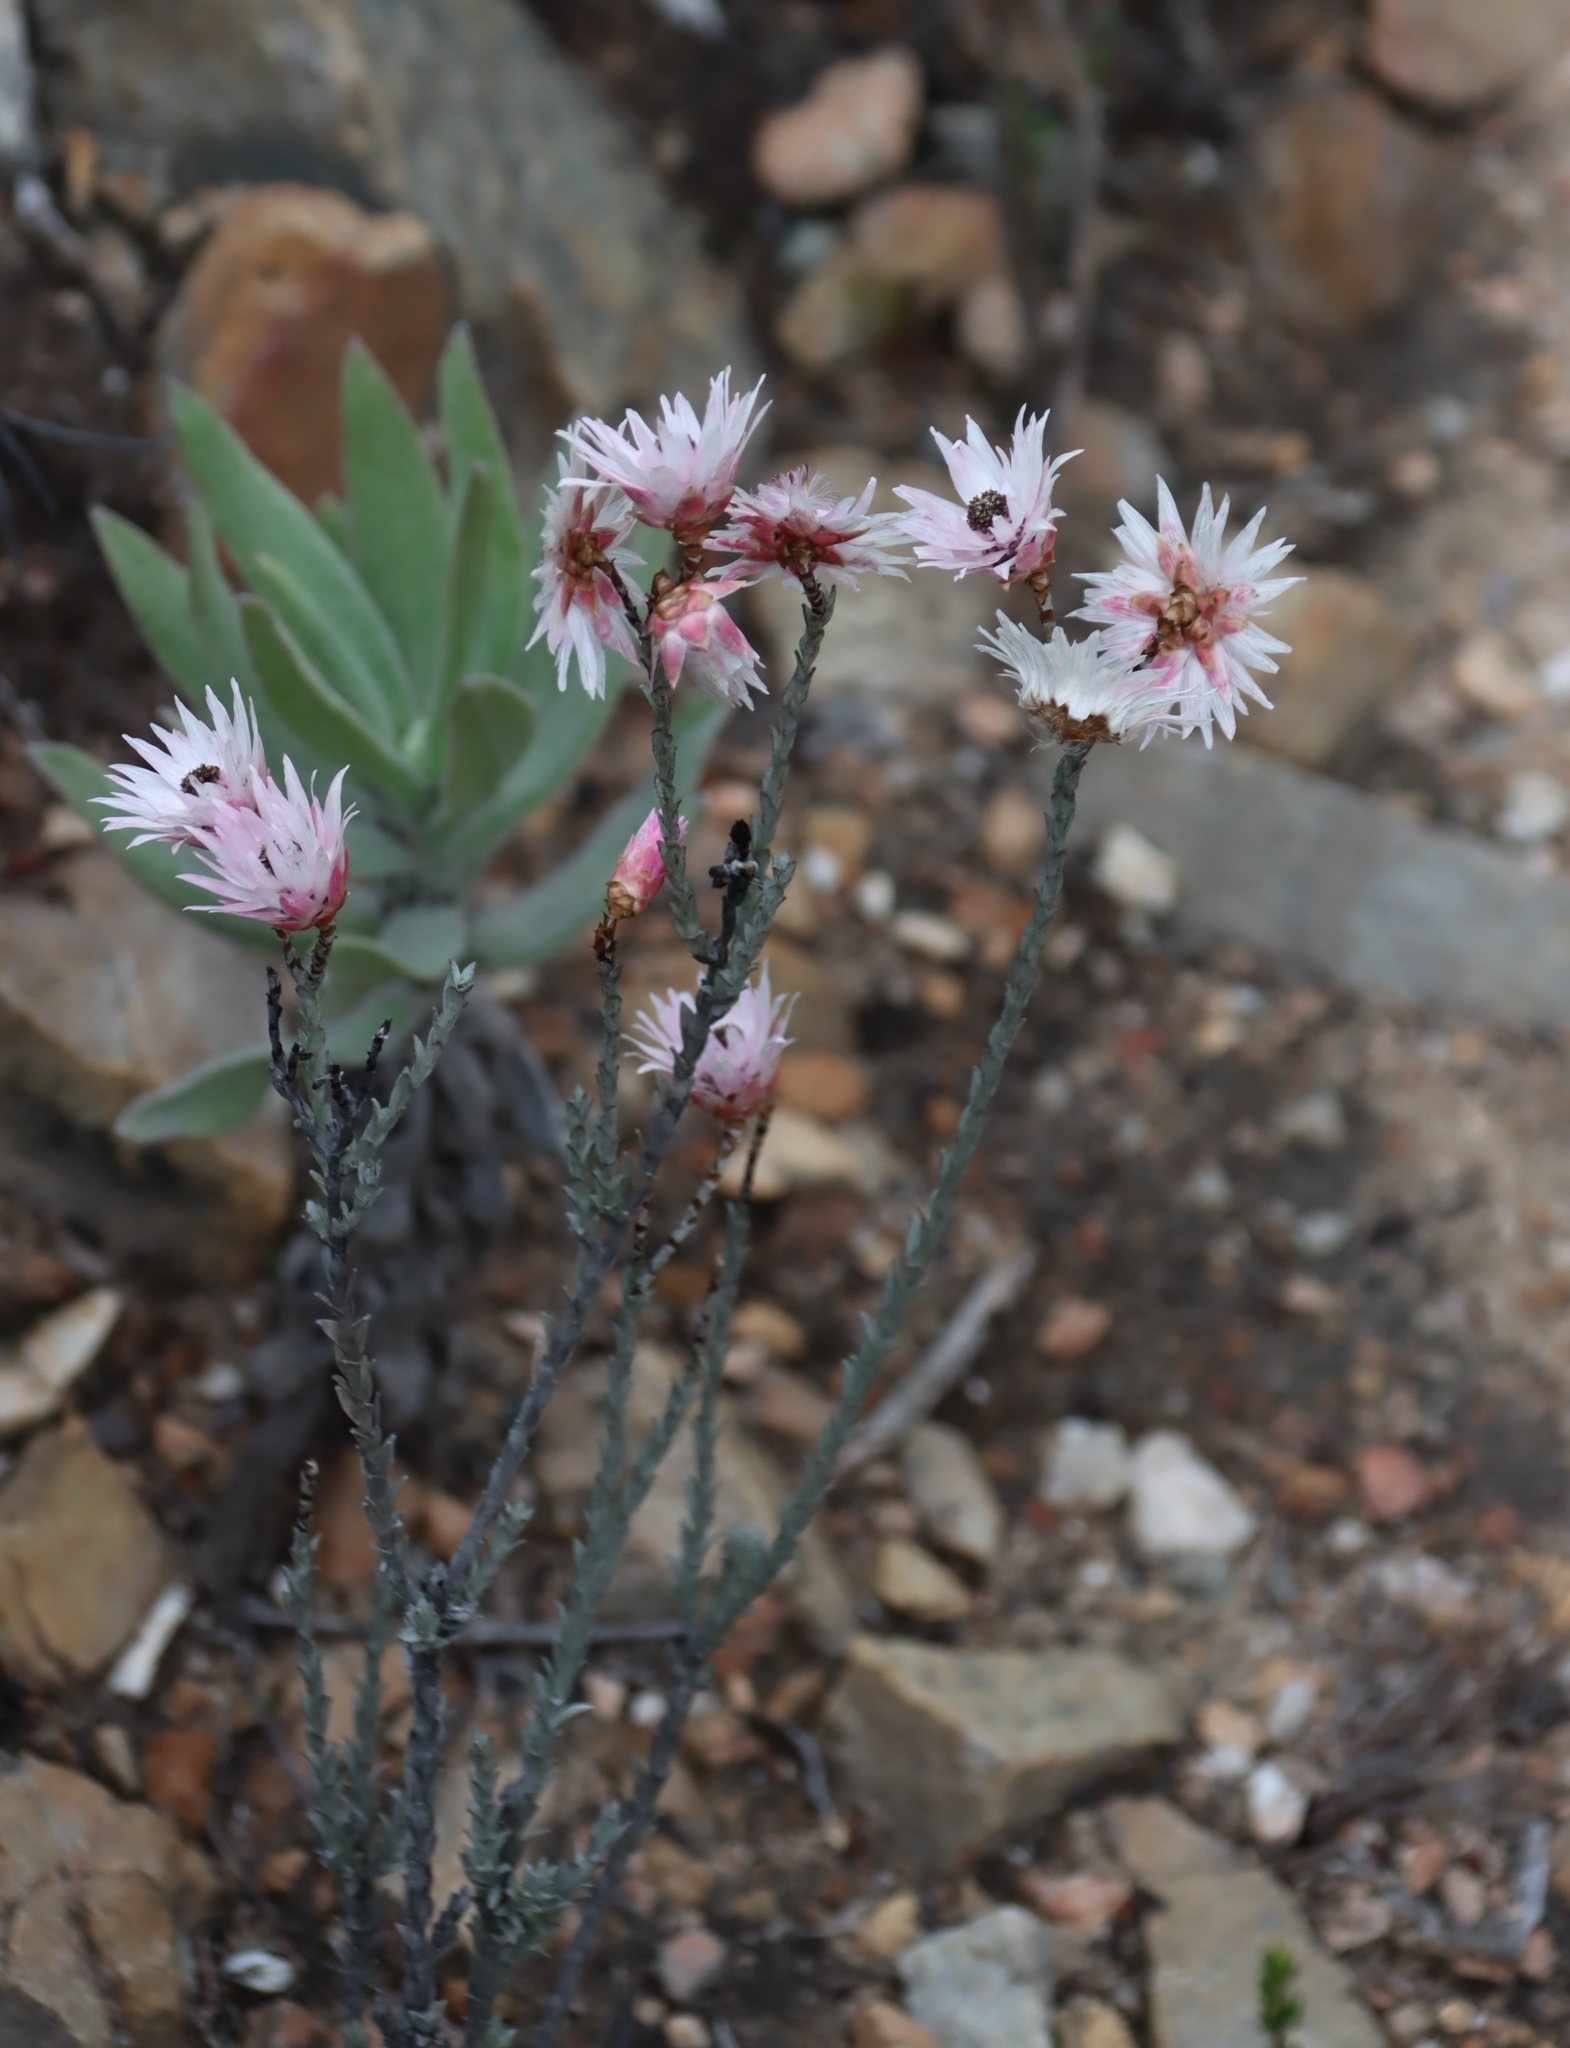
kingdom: Plantae
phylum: Tracheophyta
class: Magnoliopsida
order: Asterales
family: Asteraceae
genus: Syncarpha
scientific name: Syncarpha canescens
